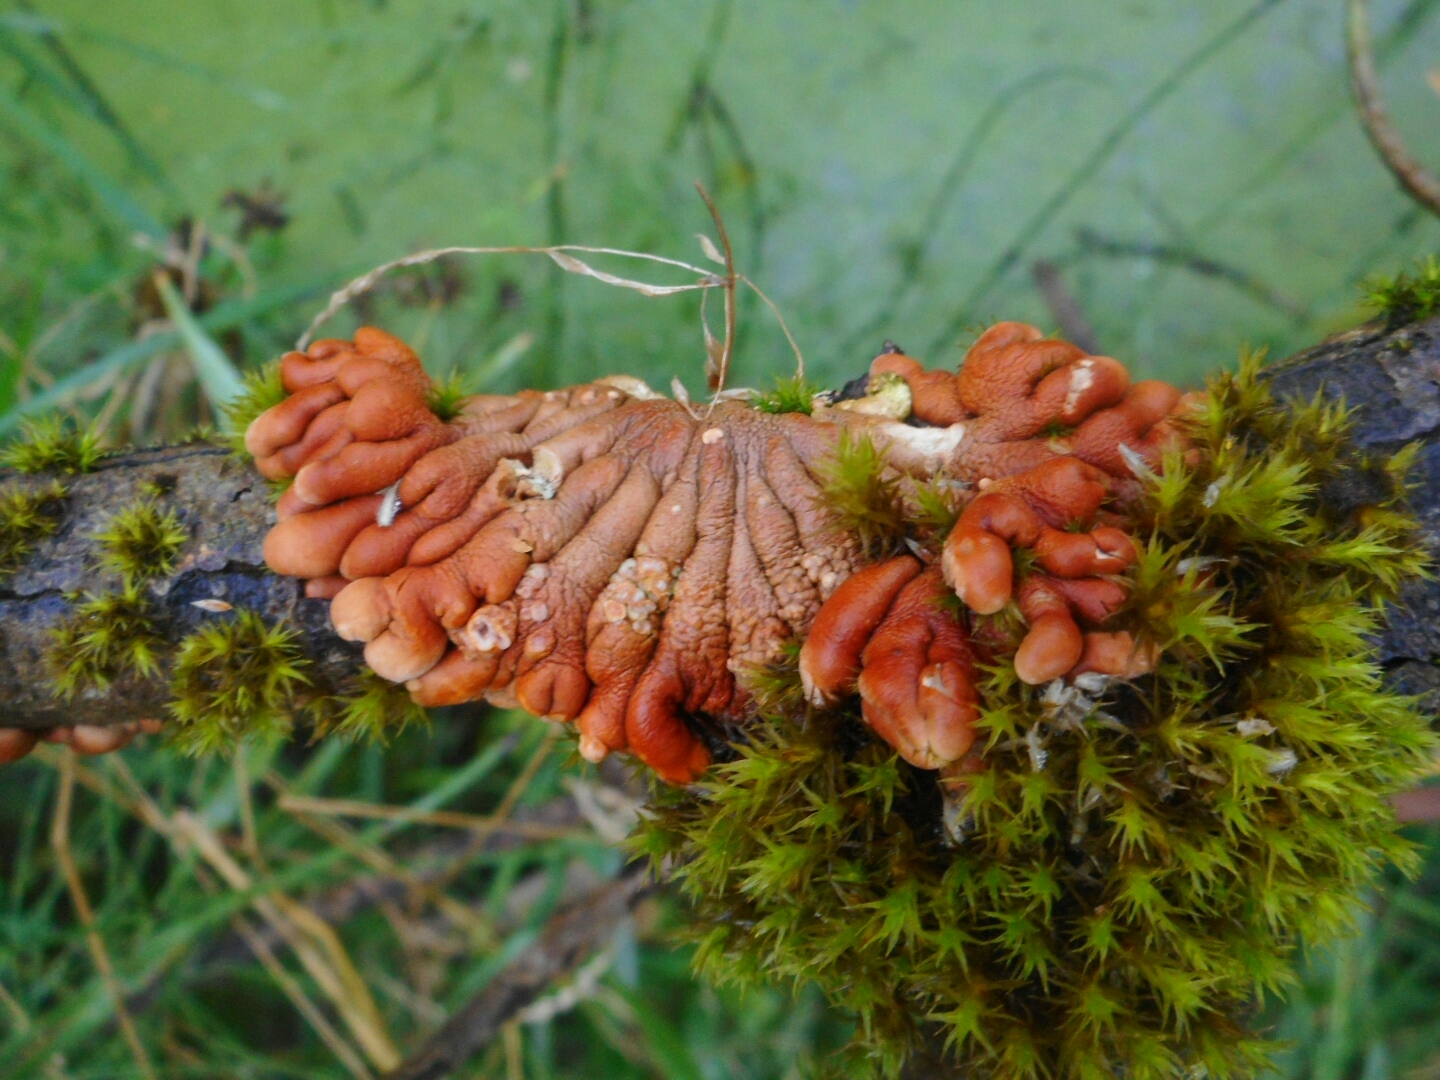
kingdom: Fungi
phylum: Ascomycota
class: Sordariomycetes
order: Hypocreales
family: Hypocreaceae
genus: Hypocreopsis
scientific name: Hypocreopsis lichenoides
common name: Willow gloves
